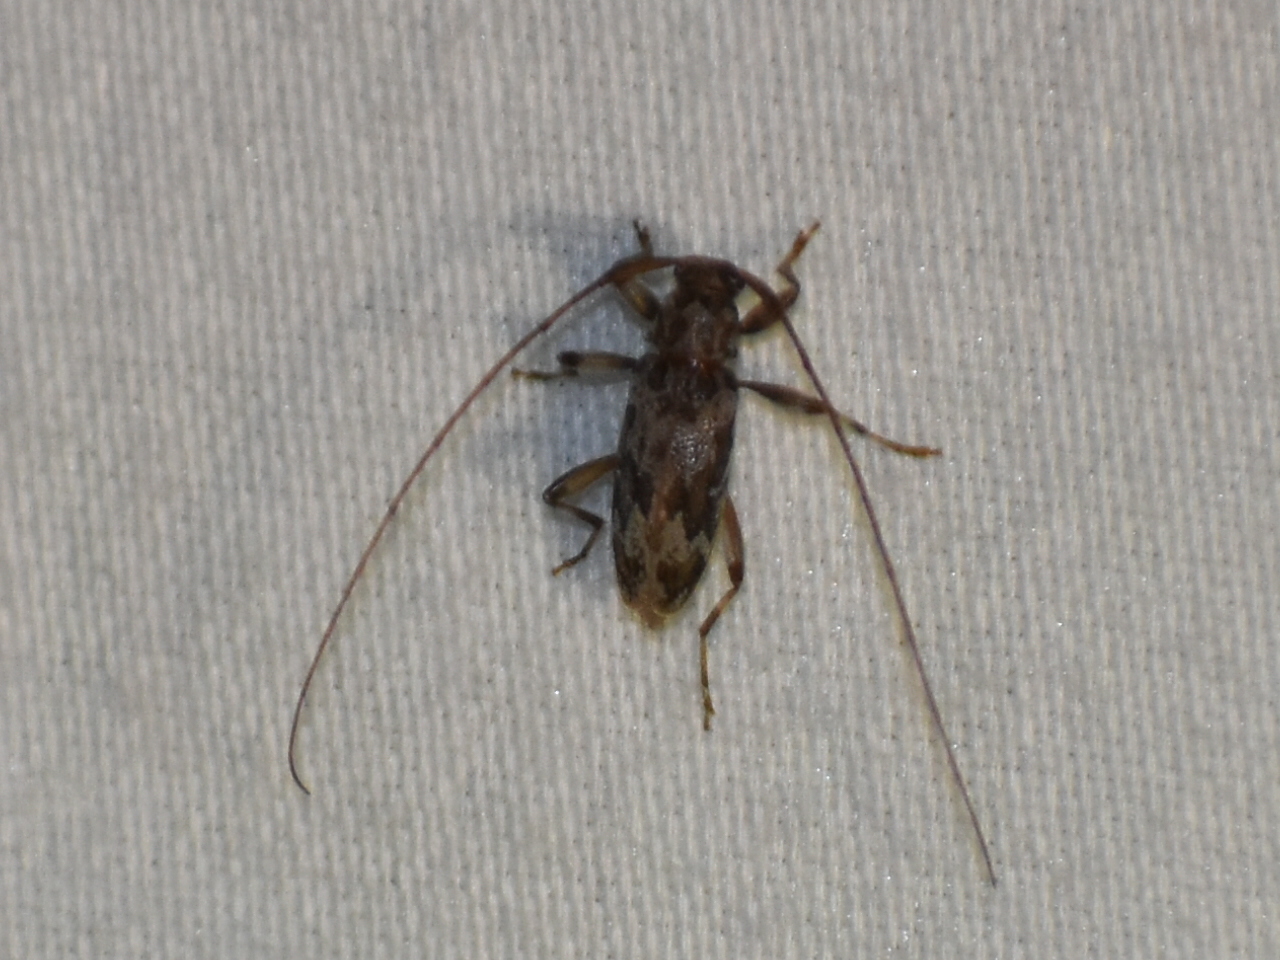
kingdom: Animalia
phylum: Arthropoda
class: Insecta
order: Coleoptera
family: Cerambycidae
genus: Lepturges
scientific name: Lepturges confluens
